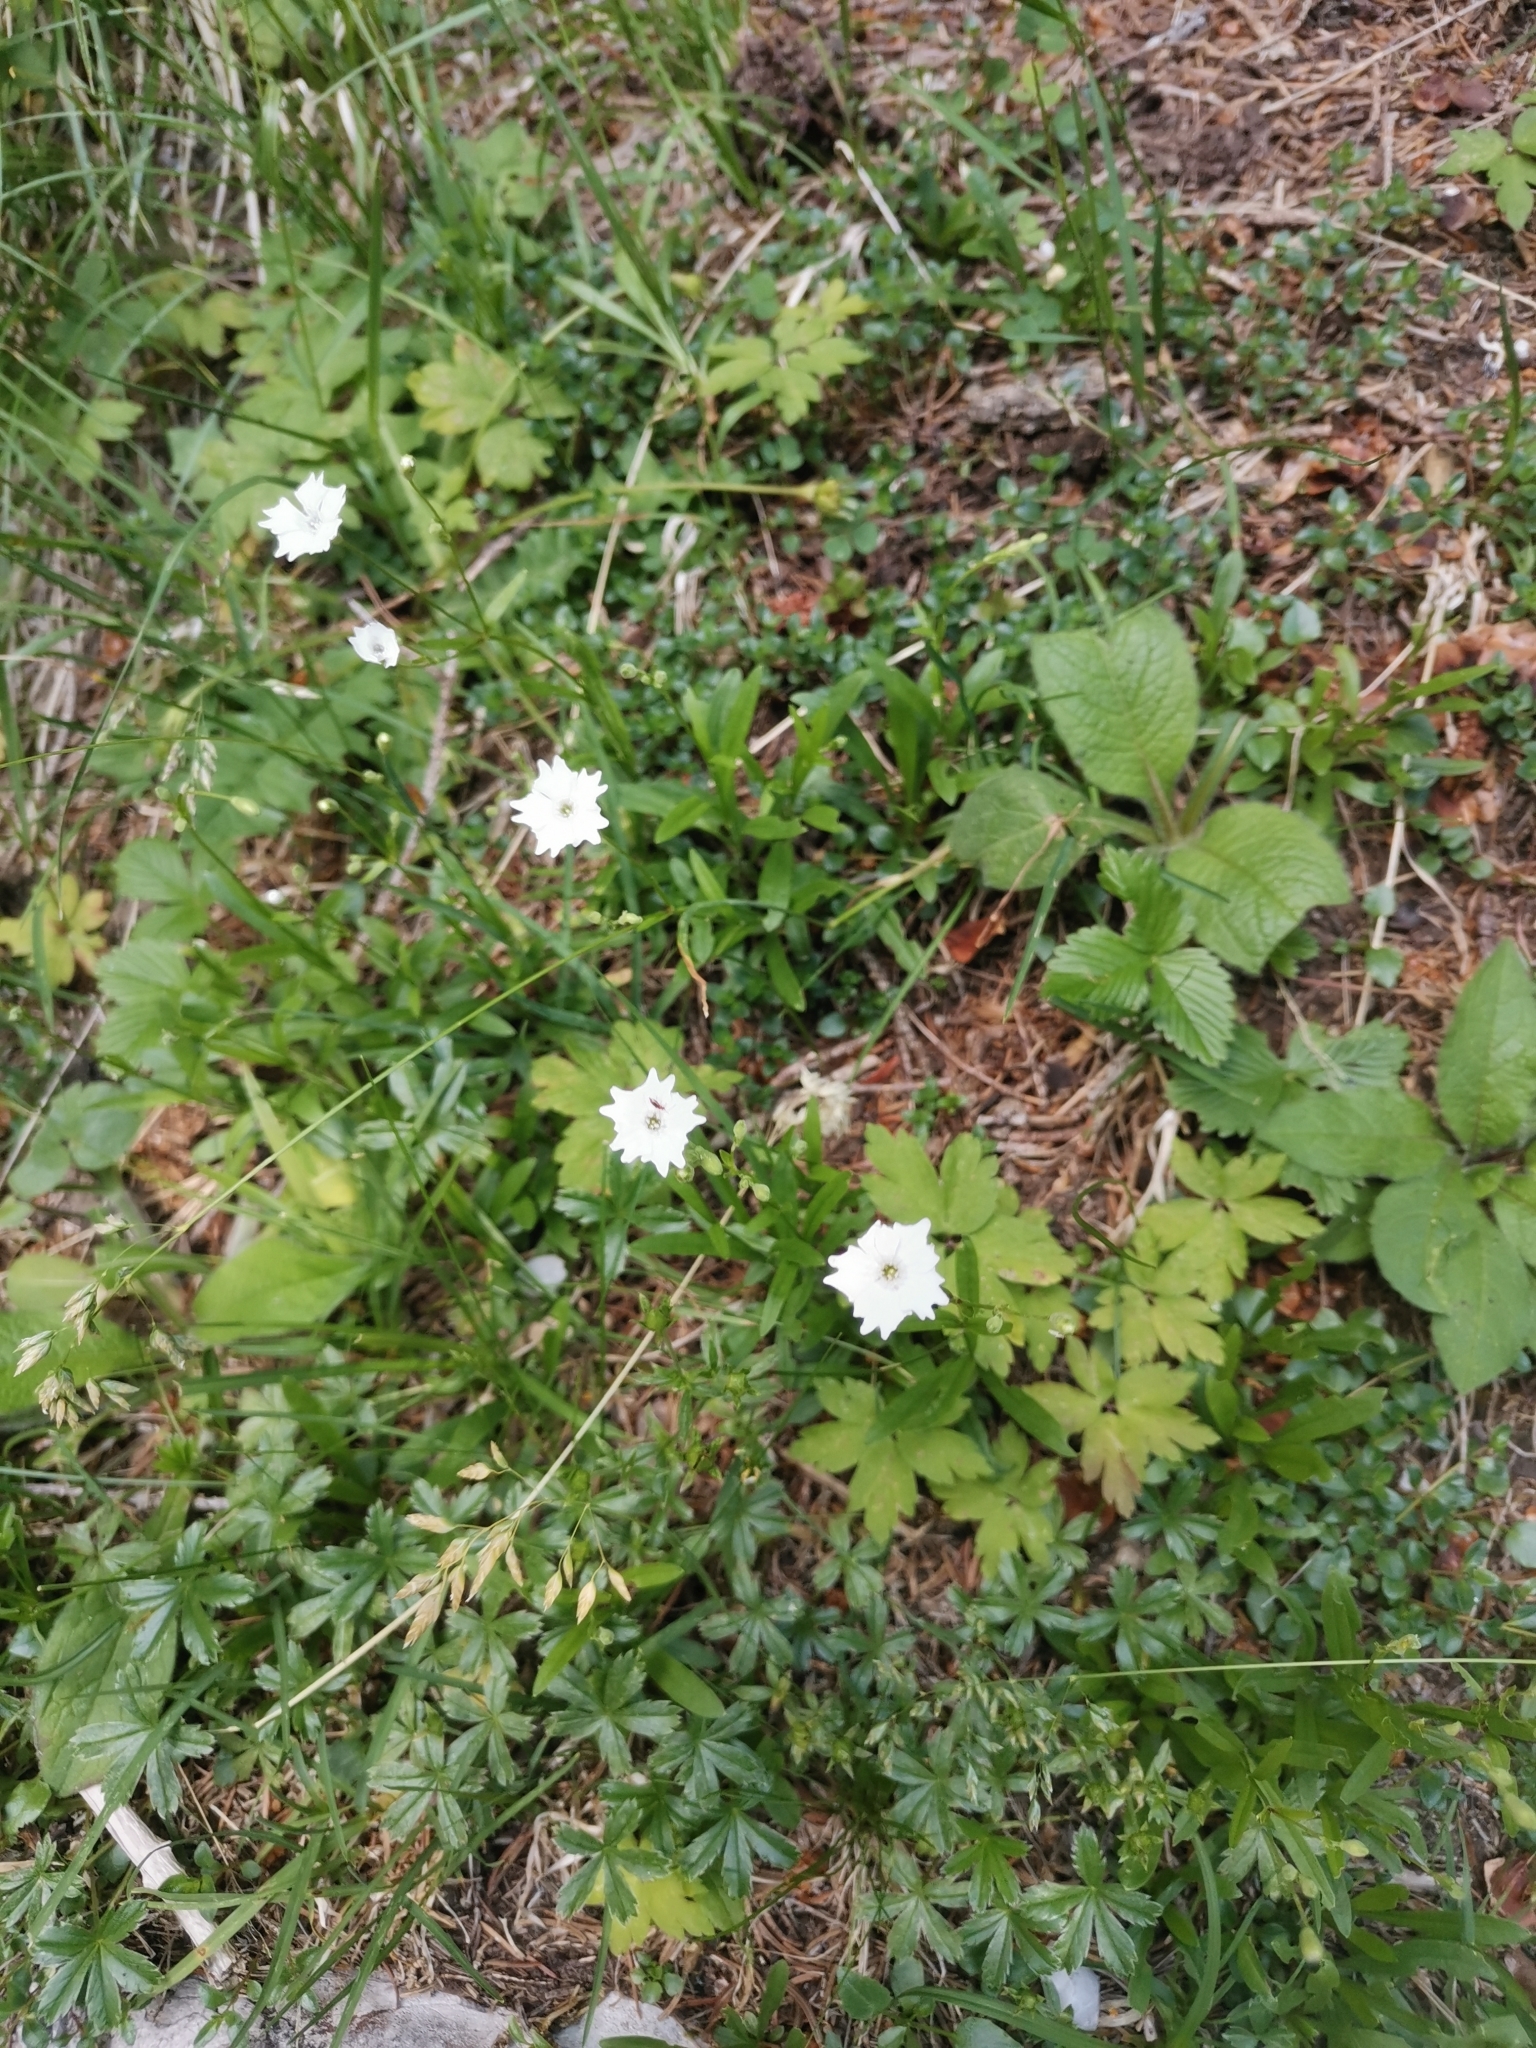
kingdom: Plantae
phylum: Tracheophyta
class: Magnoliopsida
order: Caryophyllales
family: Caryophyllaceae
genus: Heliosperma
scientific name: Heliosperma alpestre
